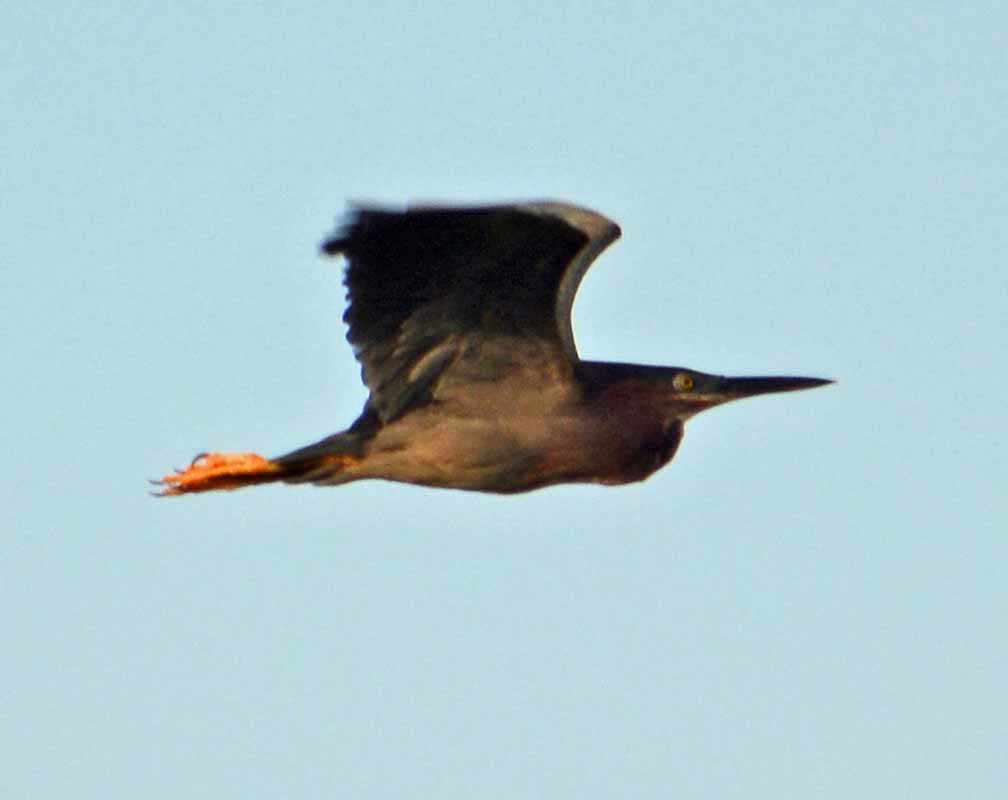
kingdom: Animalia
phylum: Chordata
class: Aves
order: Pelecaniformes
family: Ardeidae
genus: Butorides
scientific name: Butorides virescens
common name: Green heron
